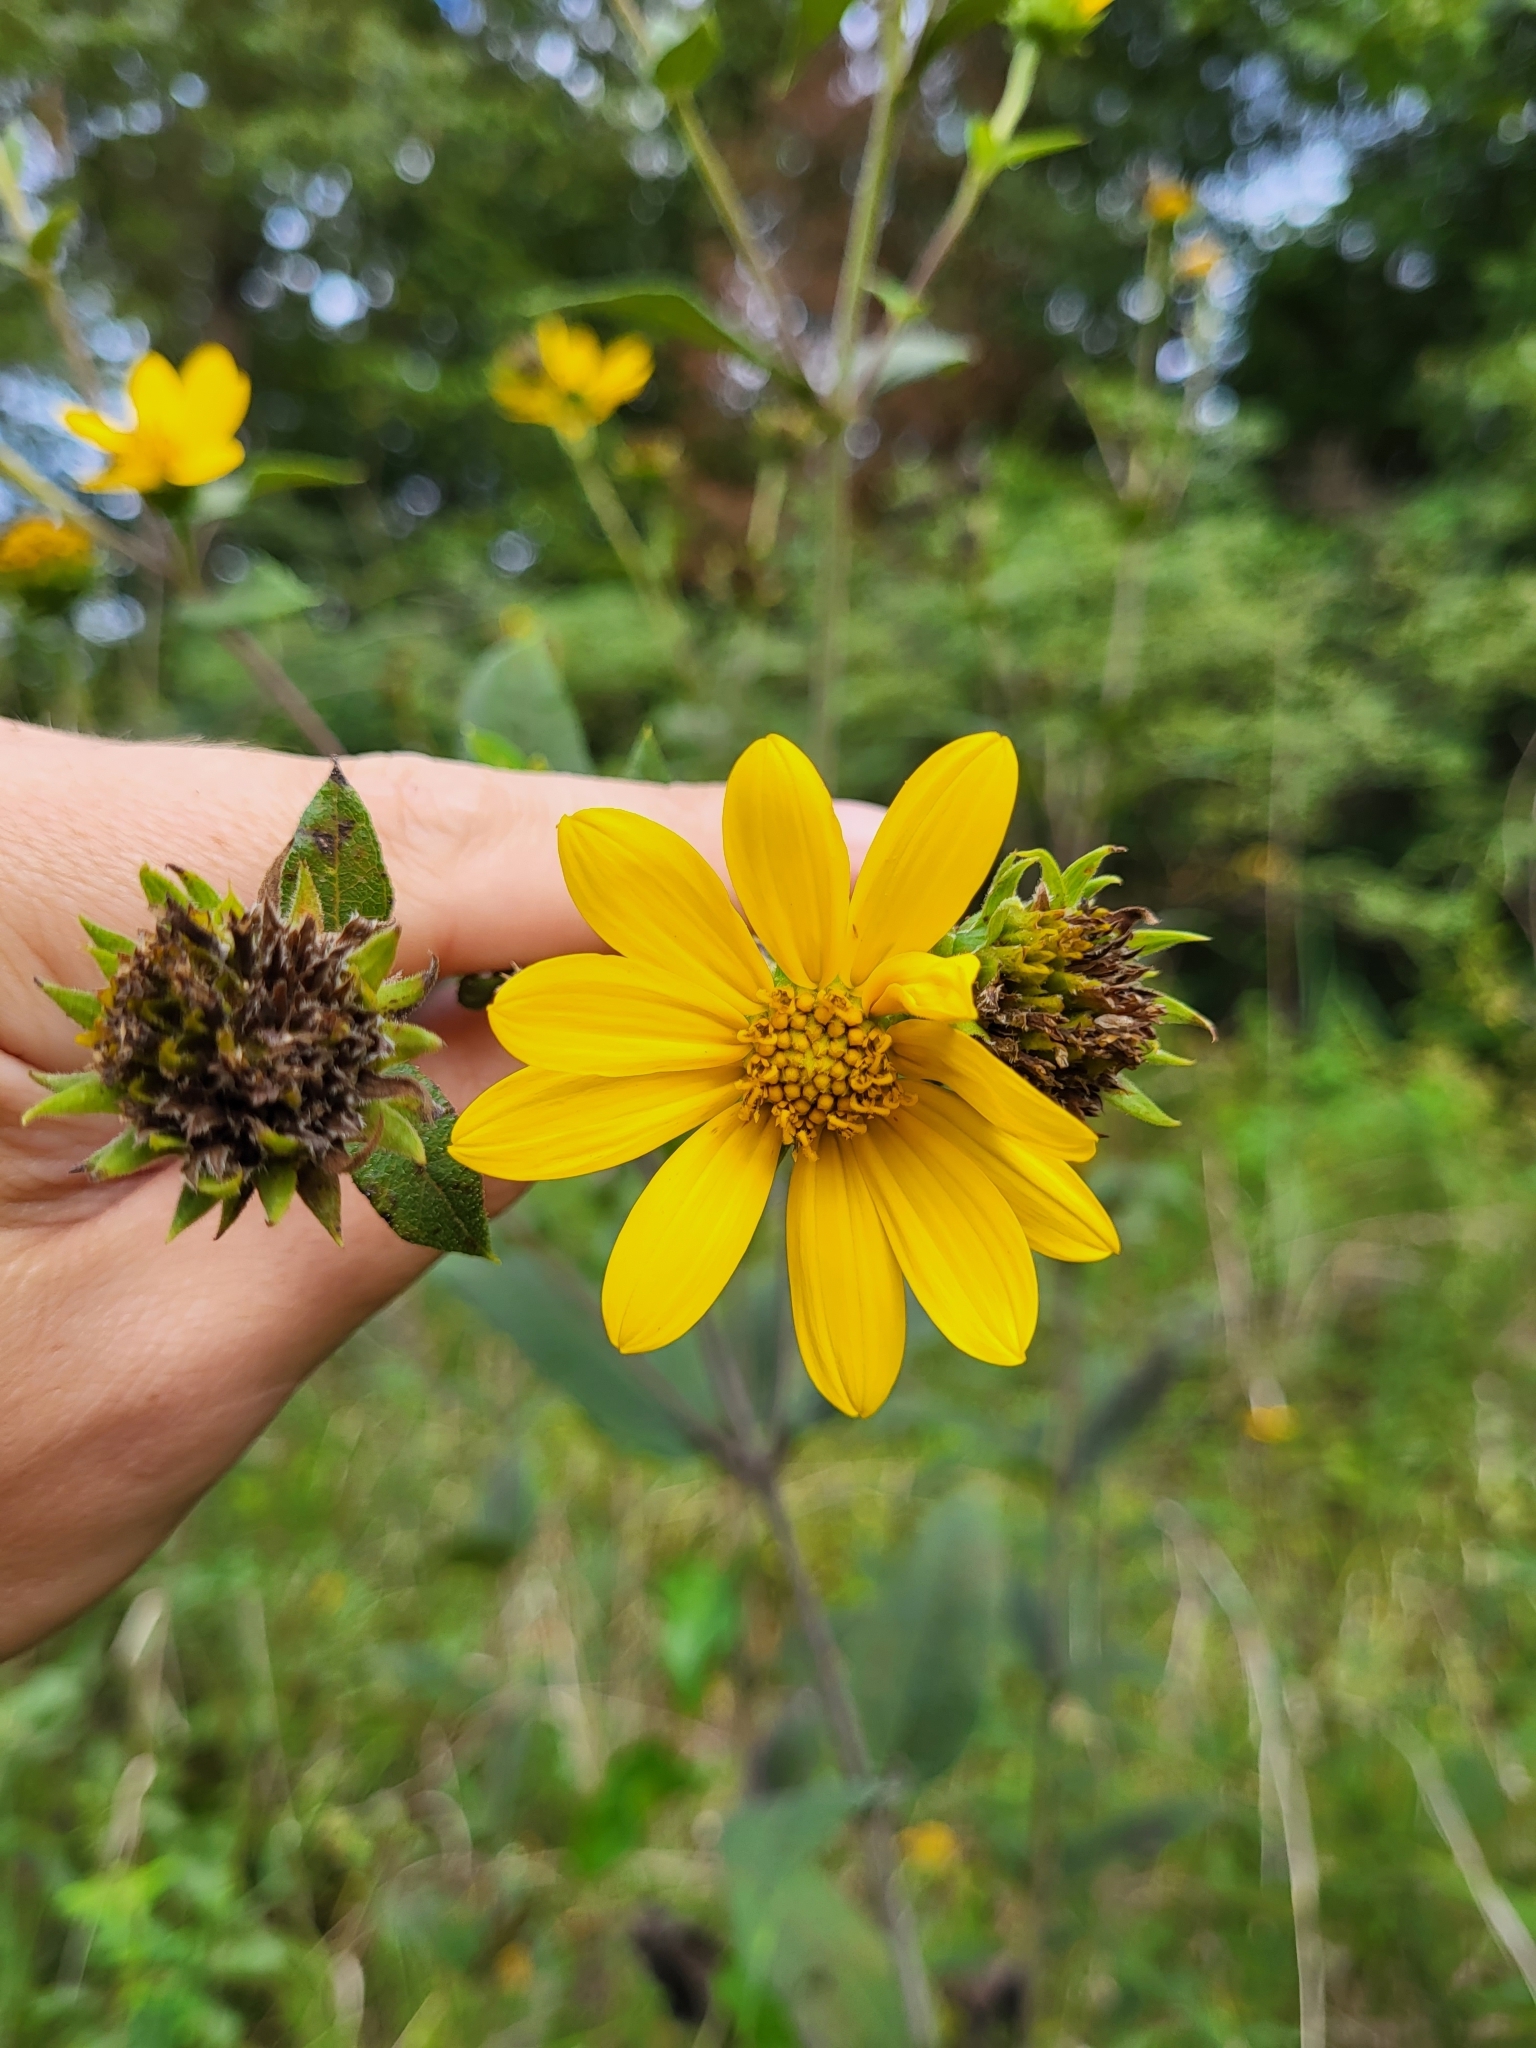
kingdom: Plantae
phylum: Tracheophyta
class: Magnoliopsida
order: Asterales
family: Asteraceae
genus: Helianthus
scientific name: Helianthus hirsutus
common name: Hairy sunflower
